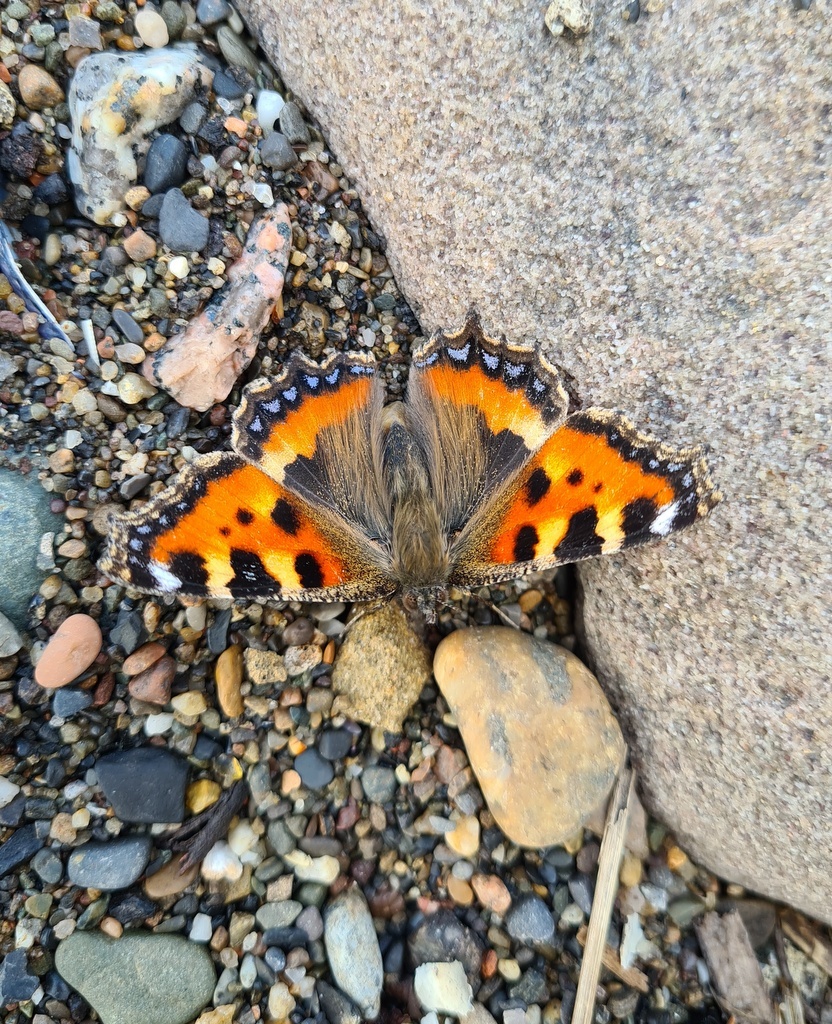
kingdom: Animalia
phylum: Arthropoda
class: Insecta
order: Lepidoptera
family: Nymphalidae
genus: Aglais
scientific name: Aglais urticae
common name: Small tortoiseshell
